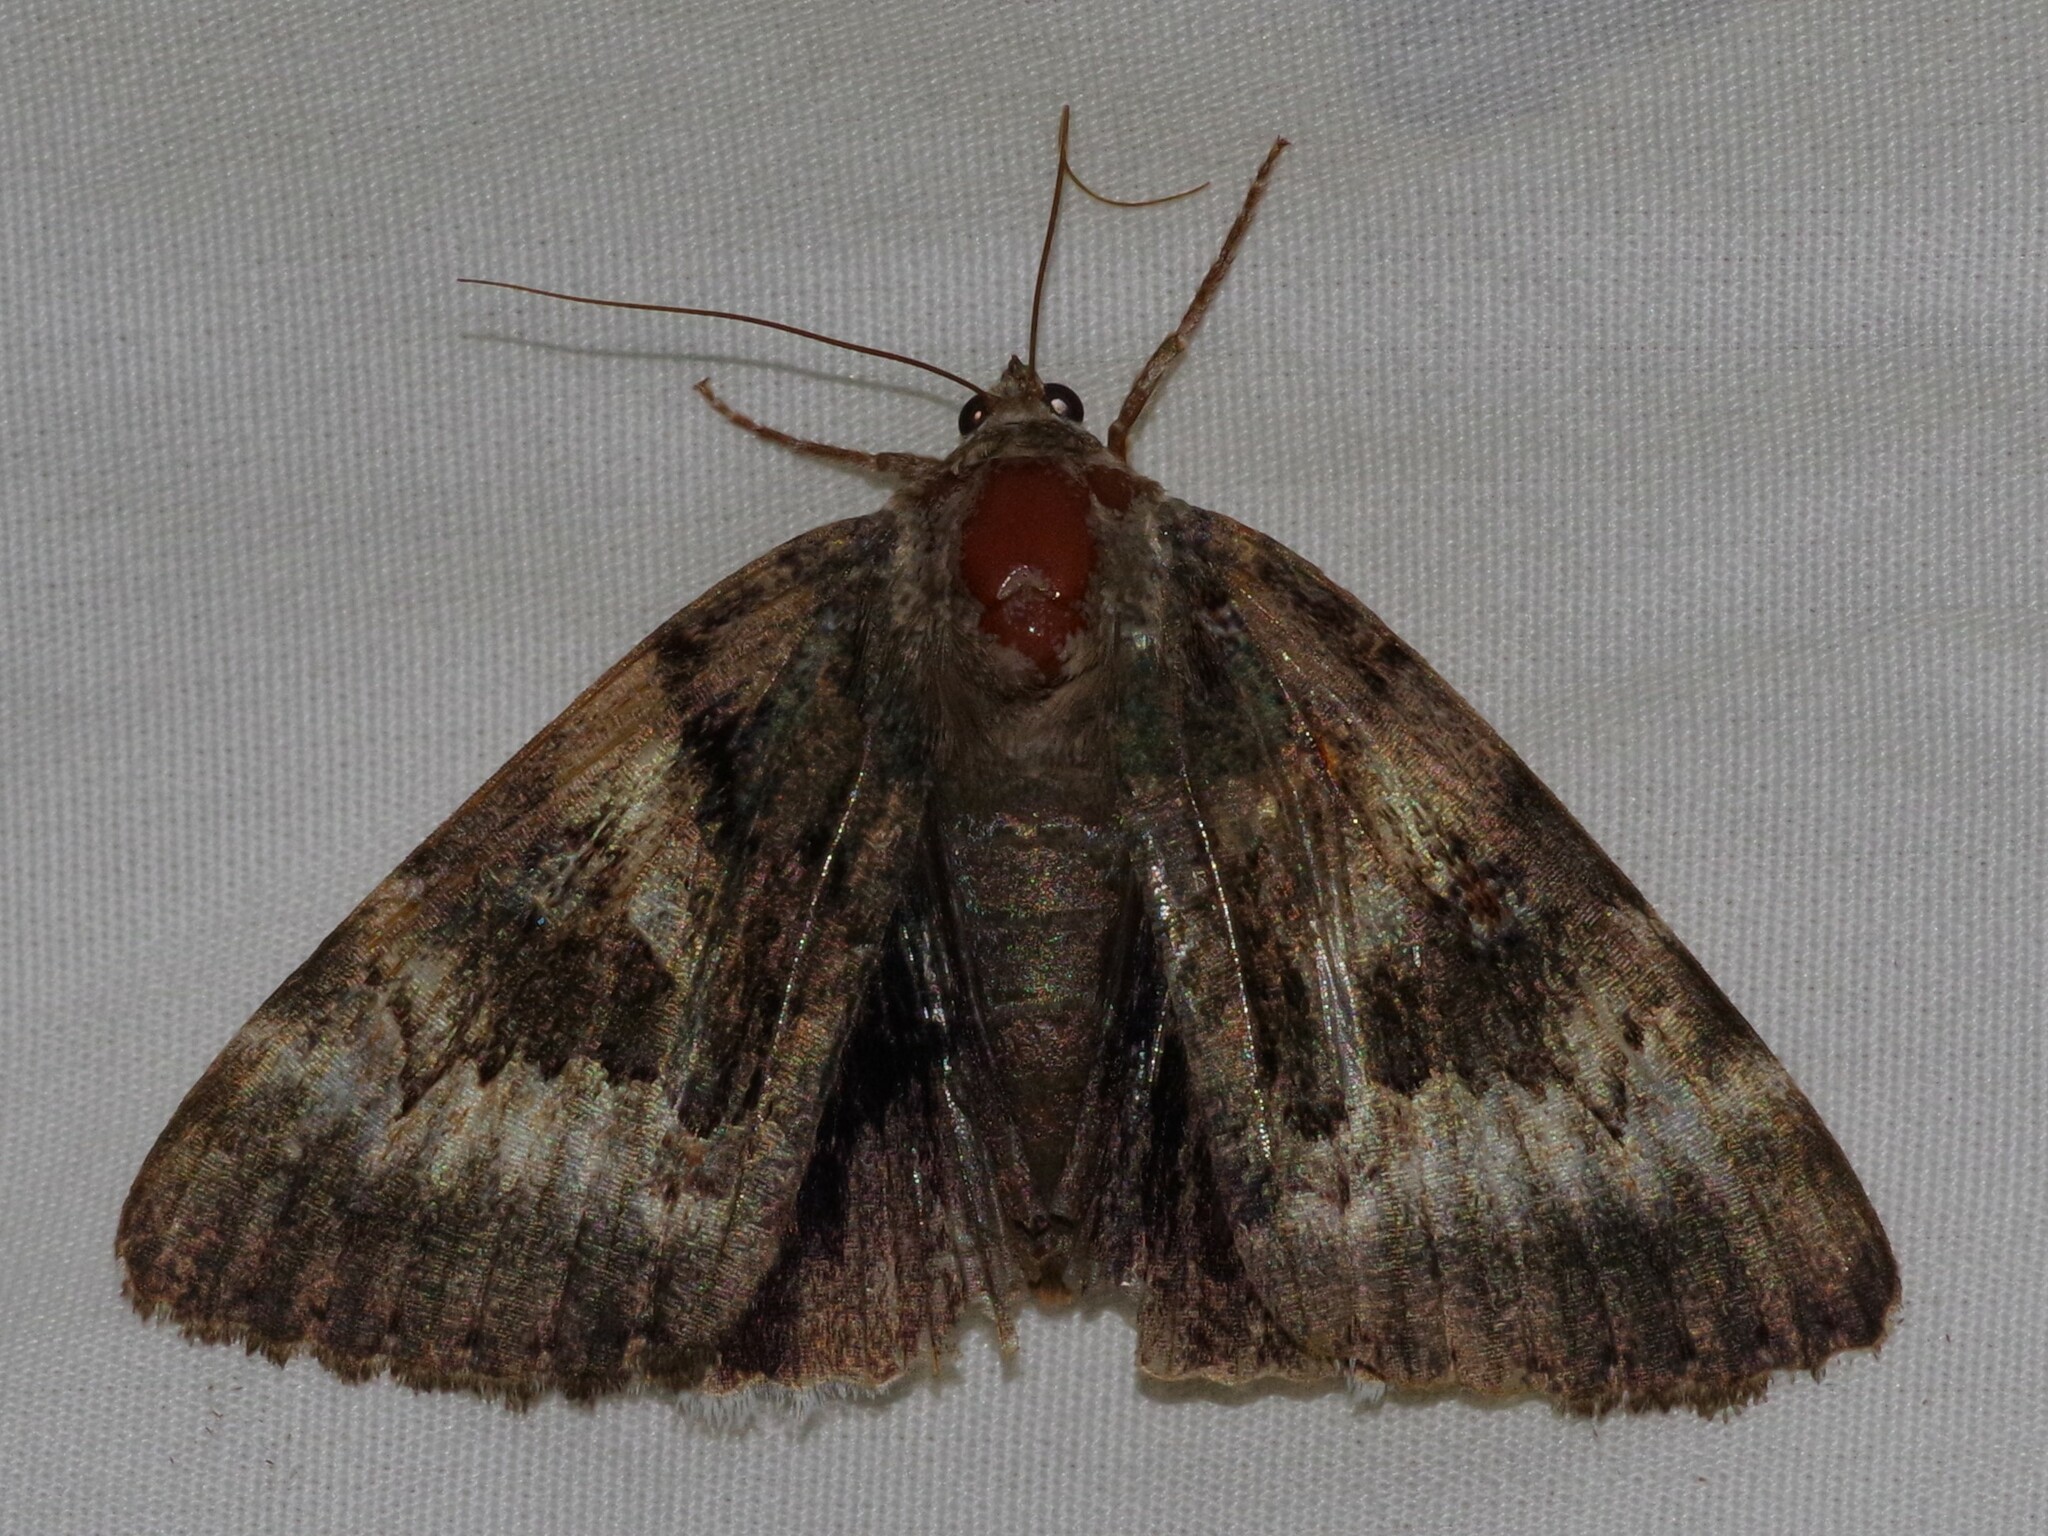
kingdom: Animalia
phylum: Arthropoda
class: Insecta
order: Lepidoptera
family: Erebidae
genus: Catocala
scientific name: Catocala epione
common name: Epione underwing
